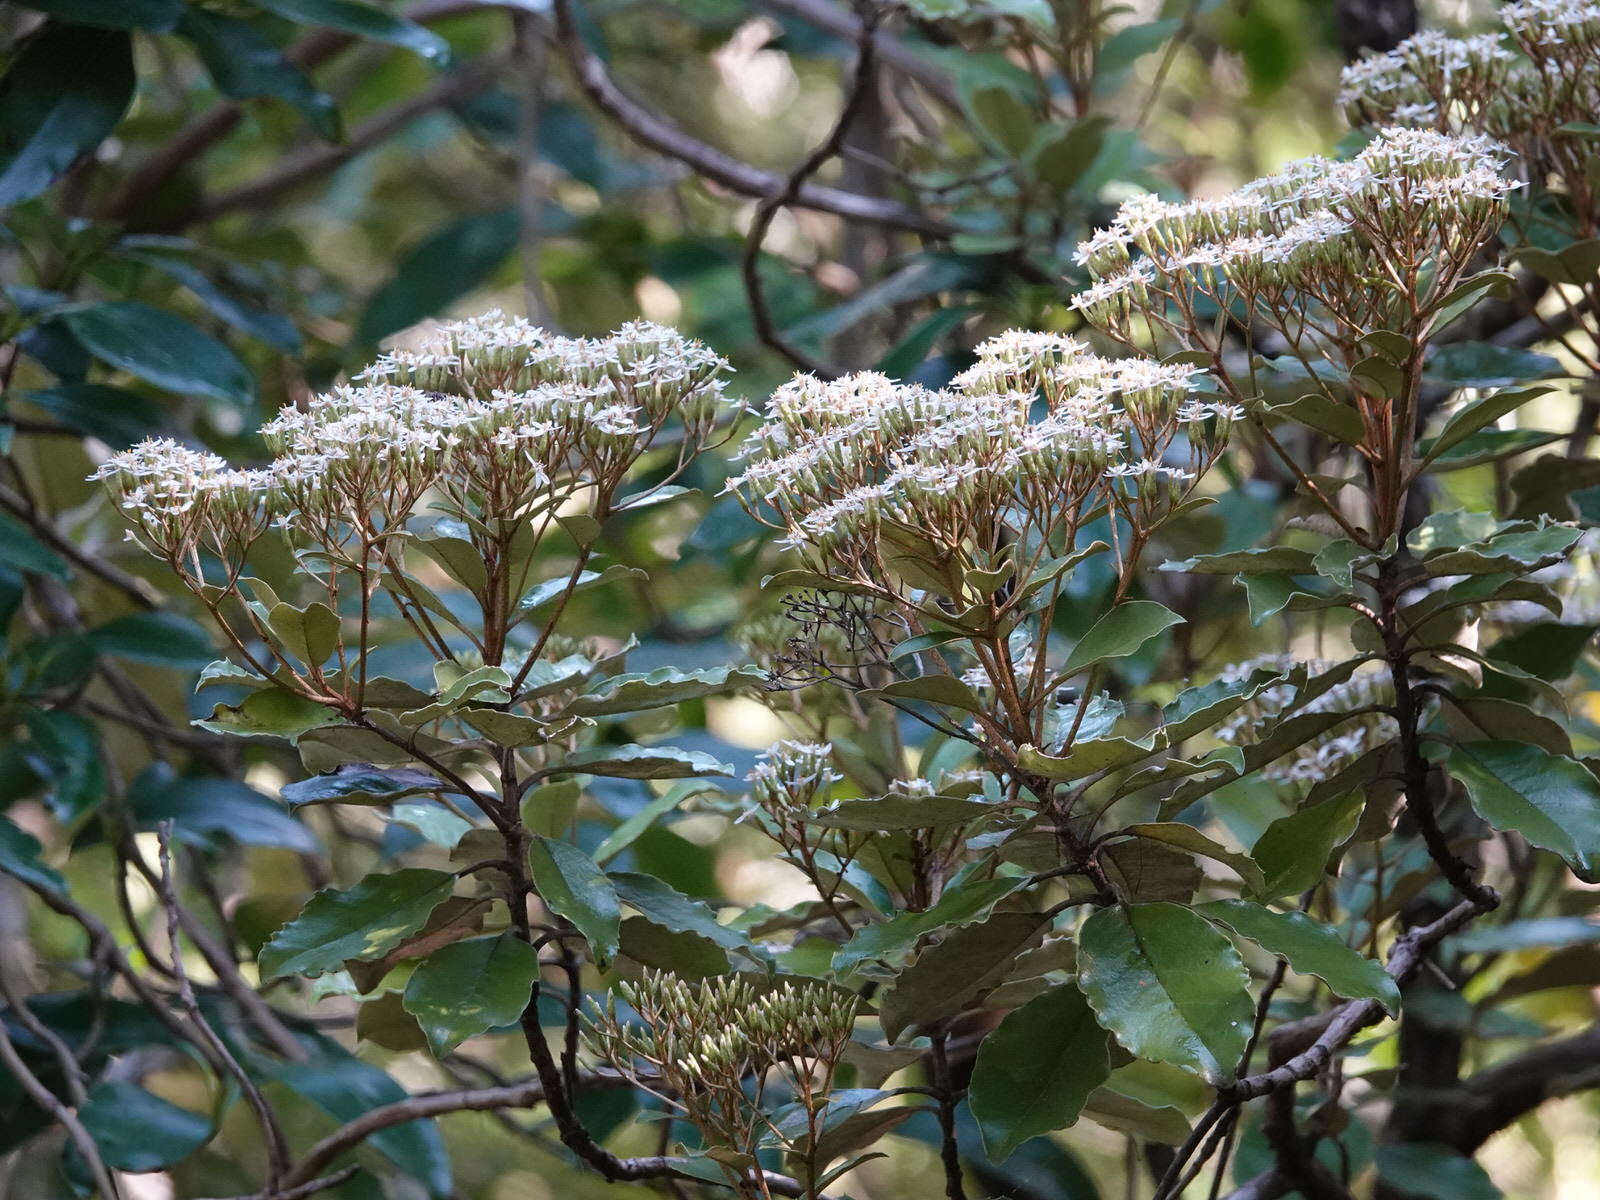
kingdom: Plantae
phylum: Tracheophyta
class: Magnoliopsida
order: Asterales
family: Asteraceae
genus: Olearia
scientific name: Olearia furfuracea
